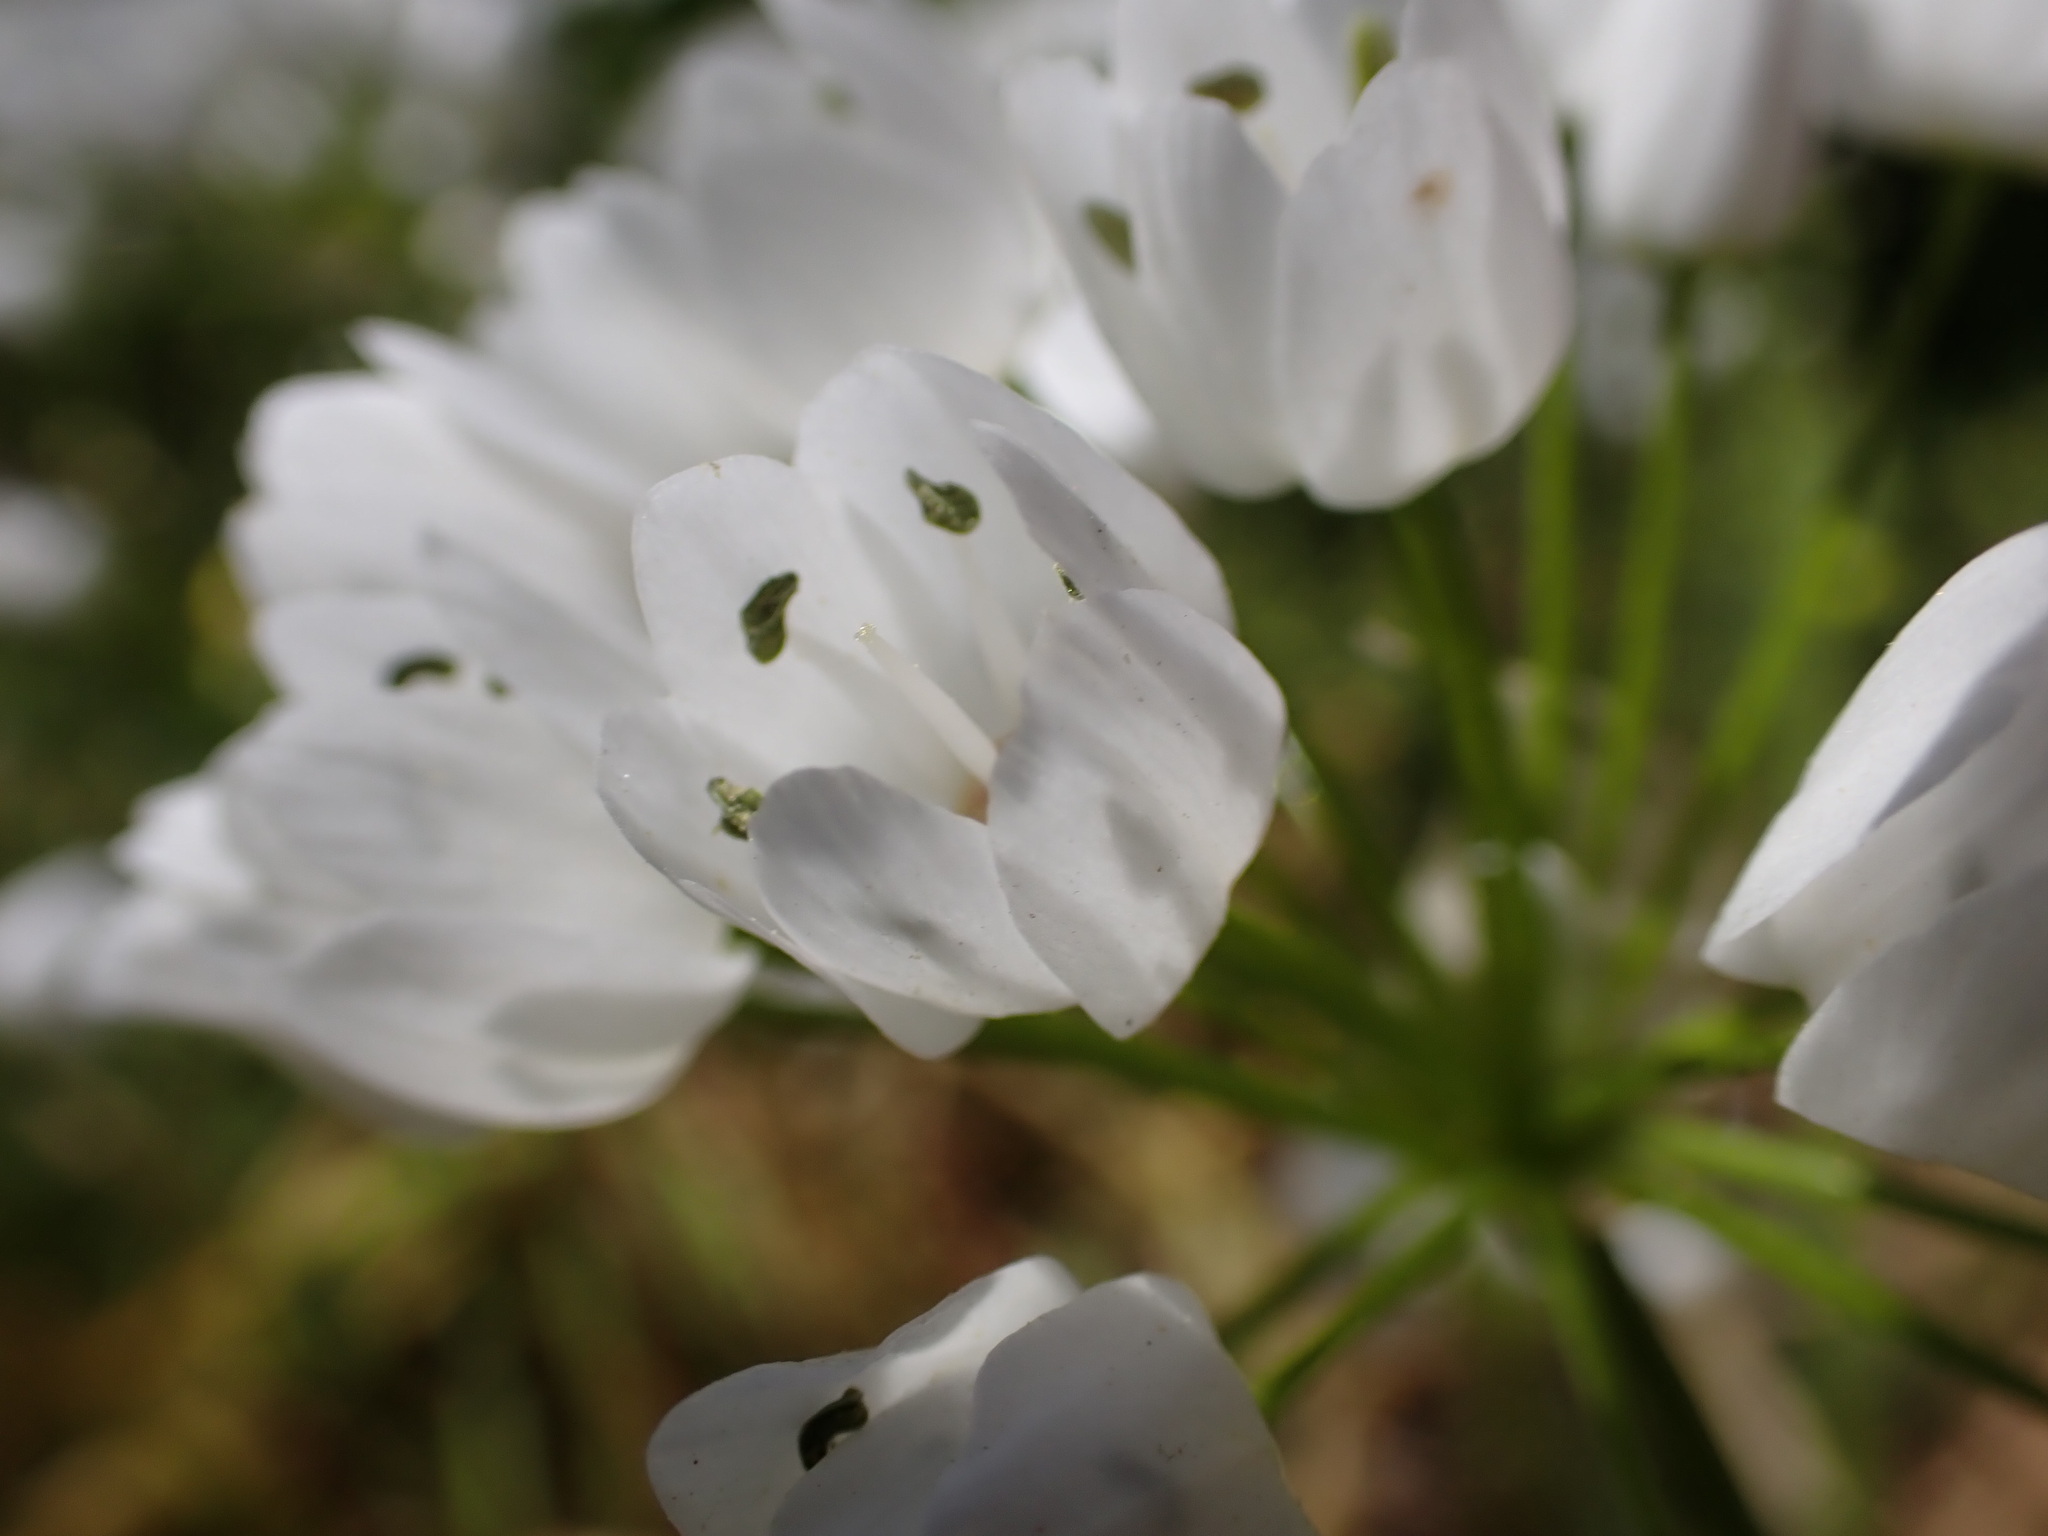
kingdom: Plantae
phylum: Tracheophyta
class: Liliopsida
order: Asparagales
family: Amaryllidaceae
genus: Allium
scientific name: Allium neapolitanum
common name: Neapolitan garlic
